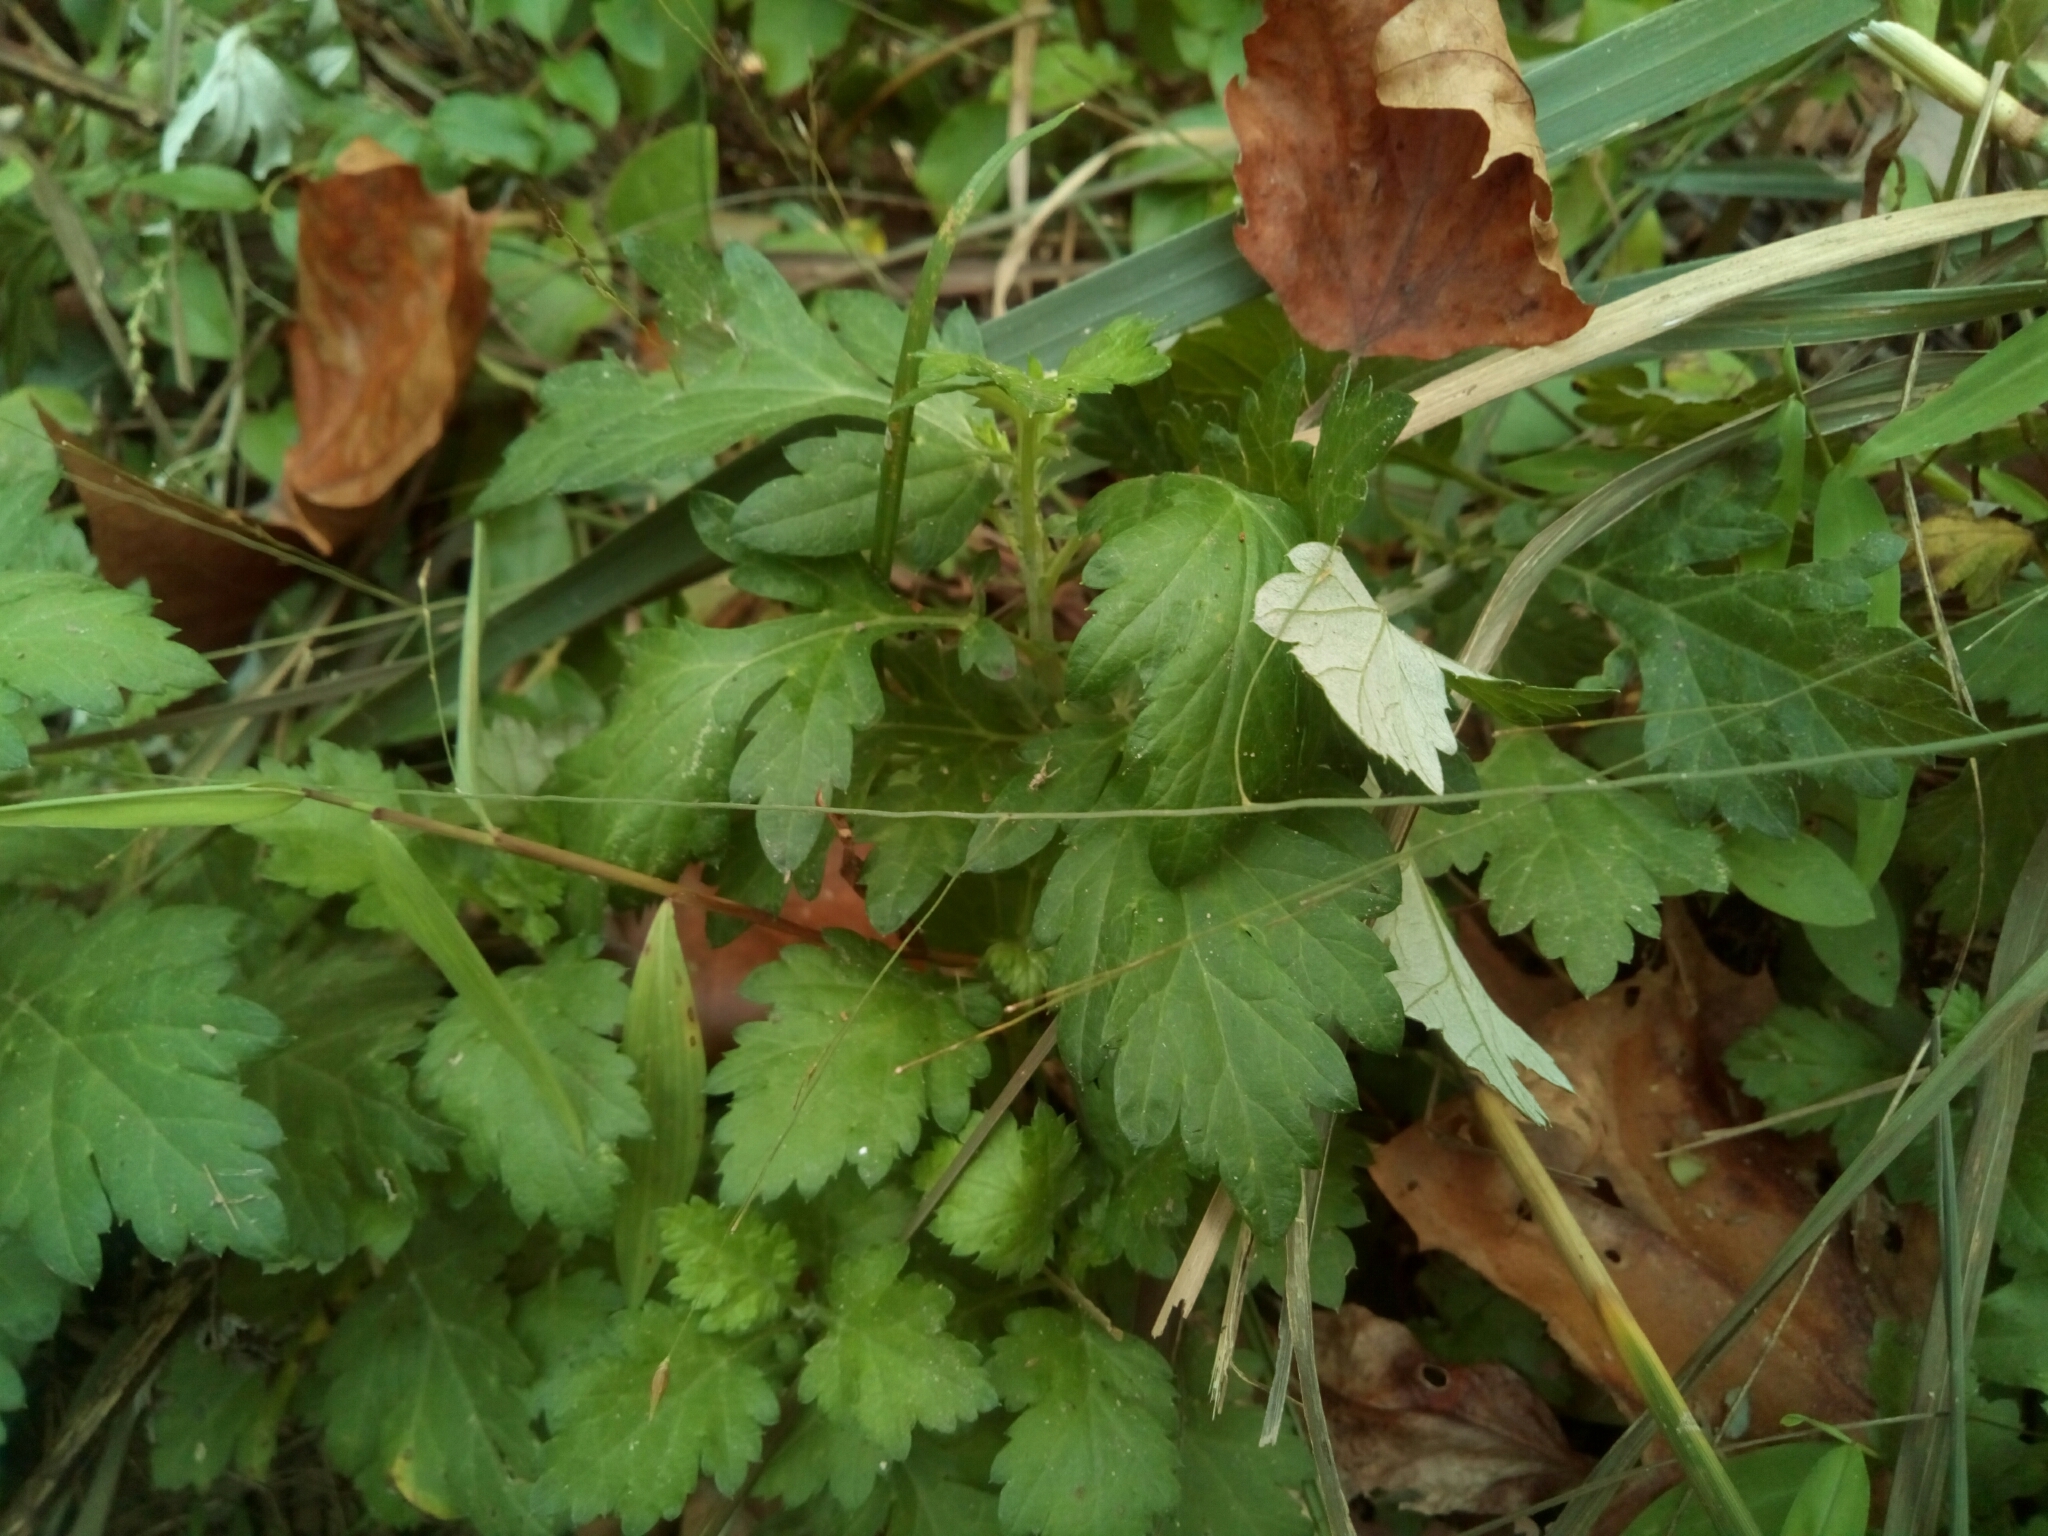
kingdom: Plantae
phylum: Tracheophyta
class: Magnoliopsida
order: Asterales
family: Asteraceae
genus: Artemisia
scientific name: Artemisia vulgaris
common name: Mugwort
